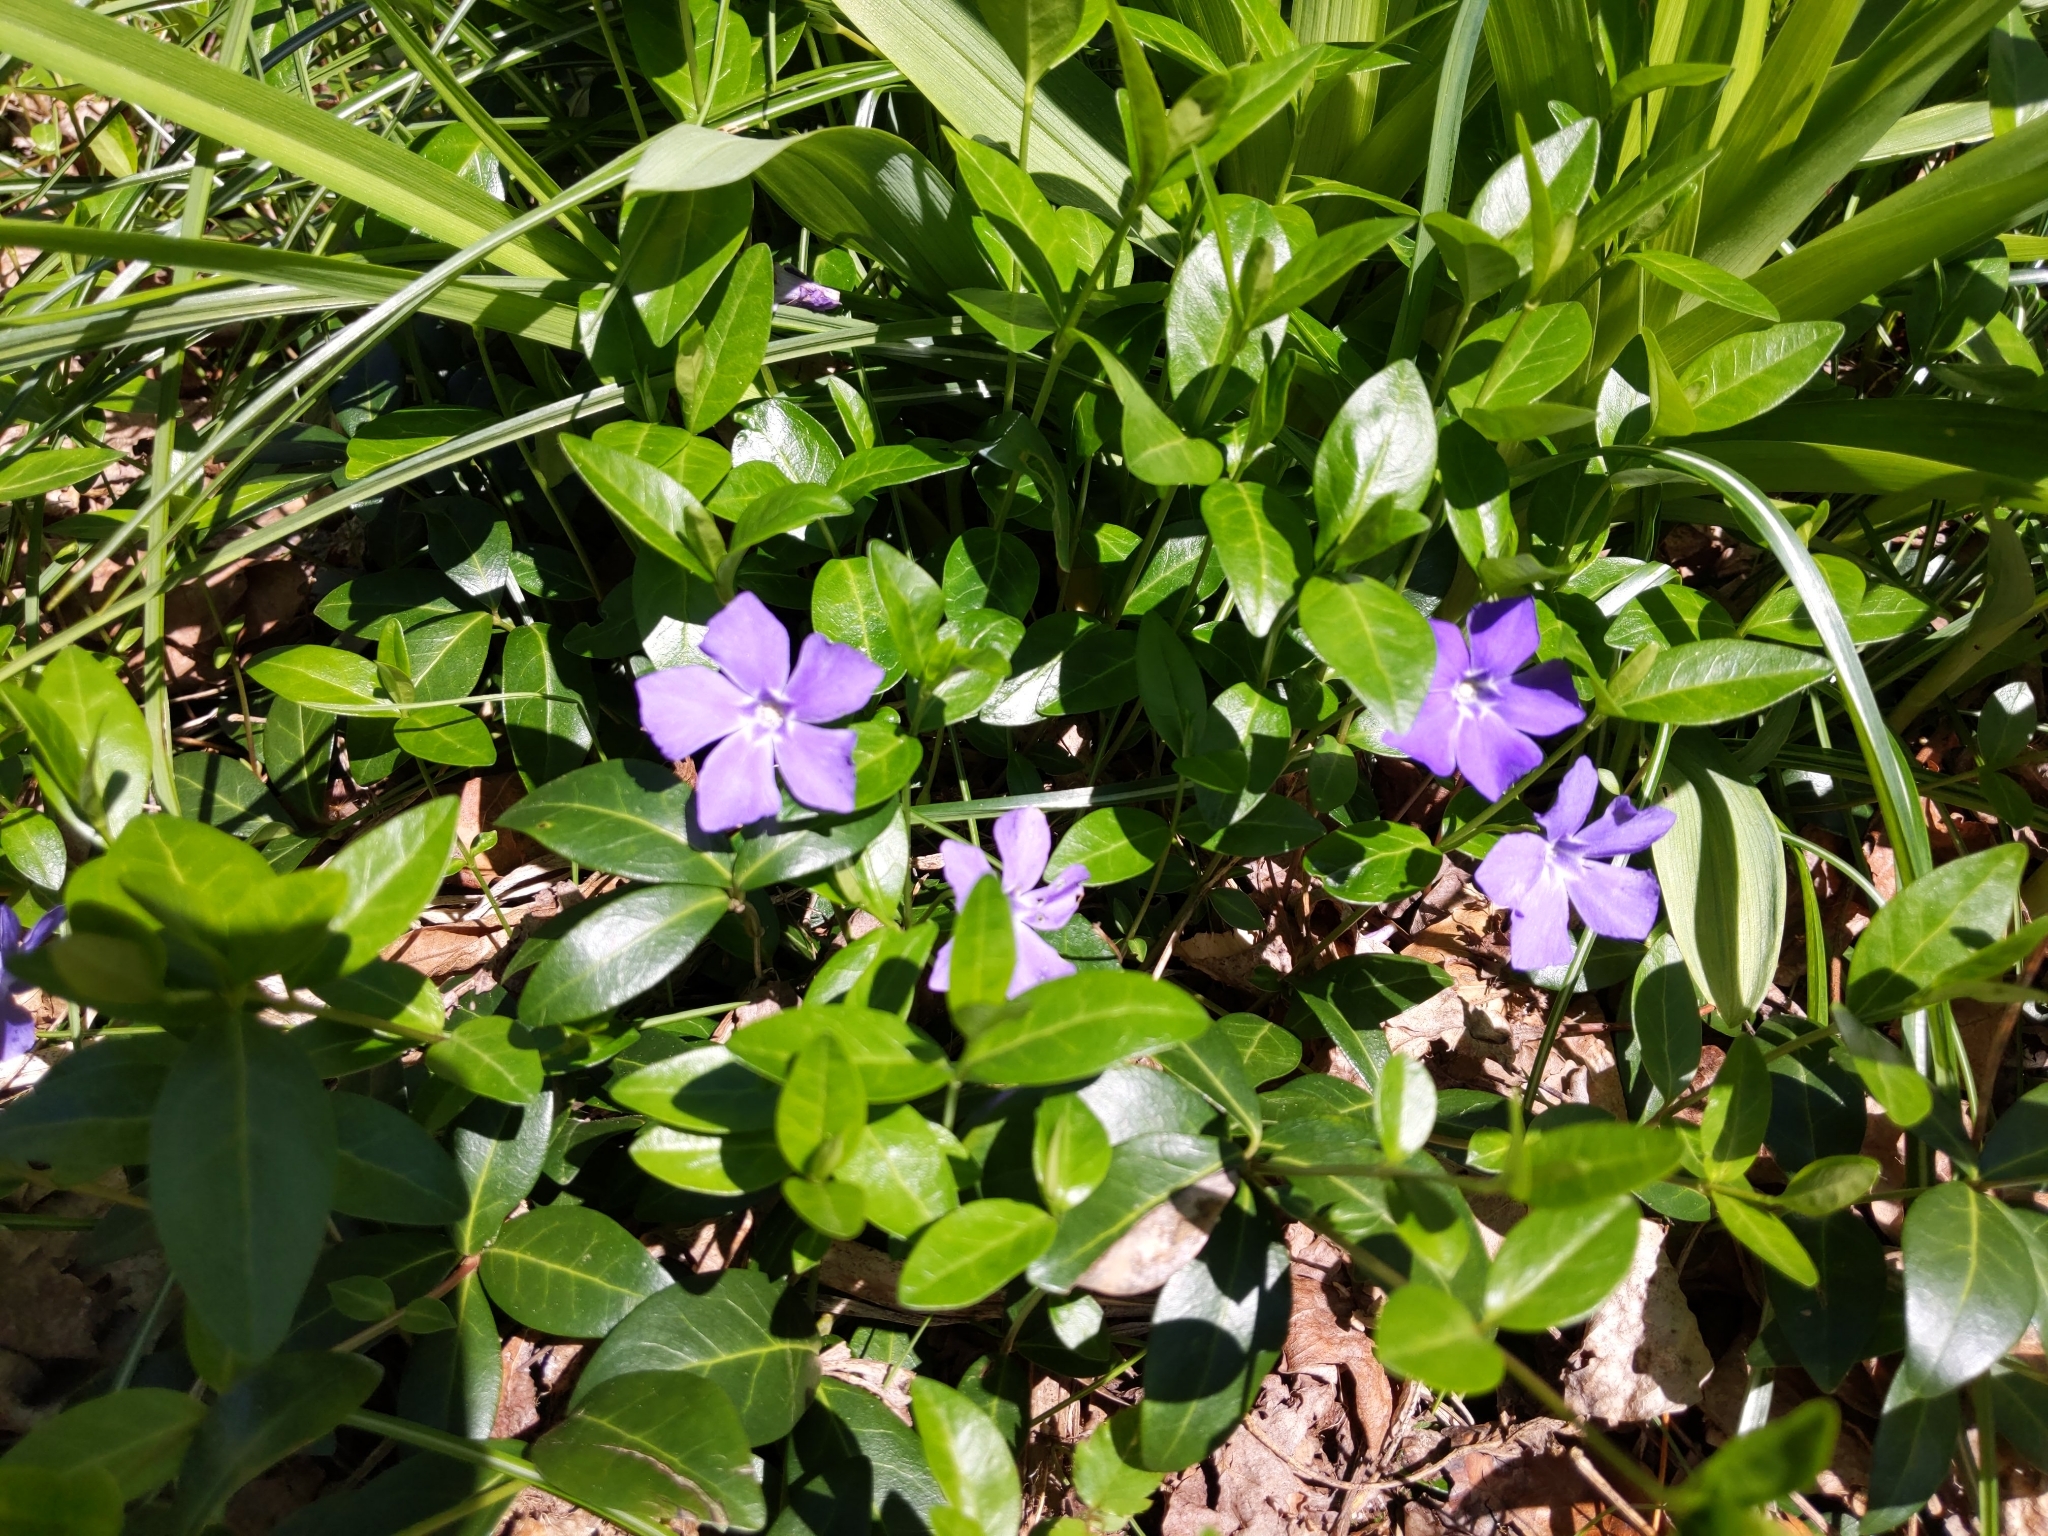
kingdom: Plantae
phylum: Tracheophyta
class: Magnoliopsida
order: Gentianales
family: Apocynaceae
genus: Vinca
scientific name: Vinca minor
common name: Lesser periwinkle
